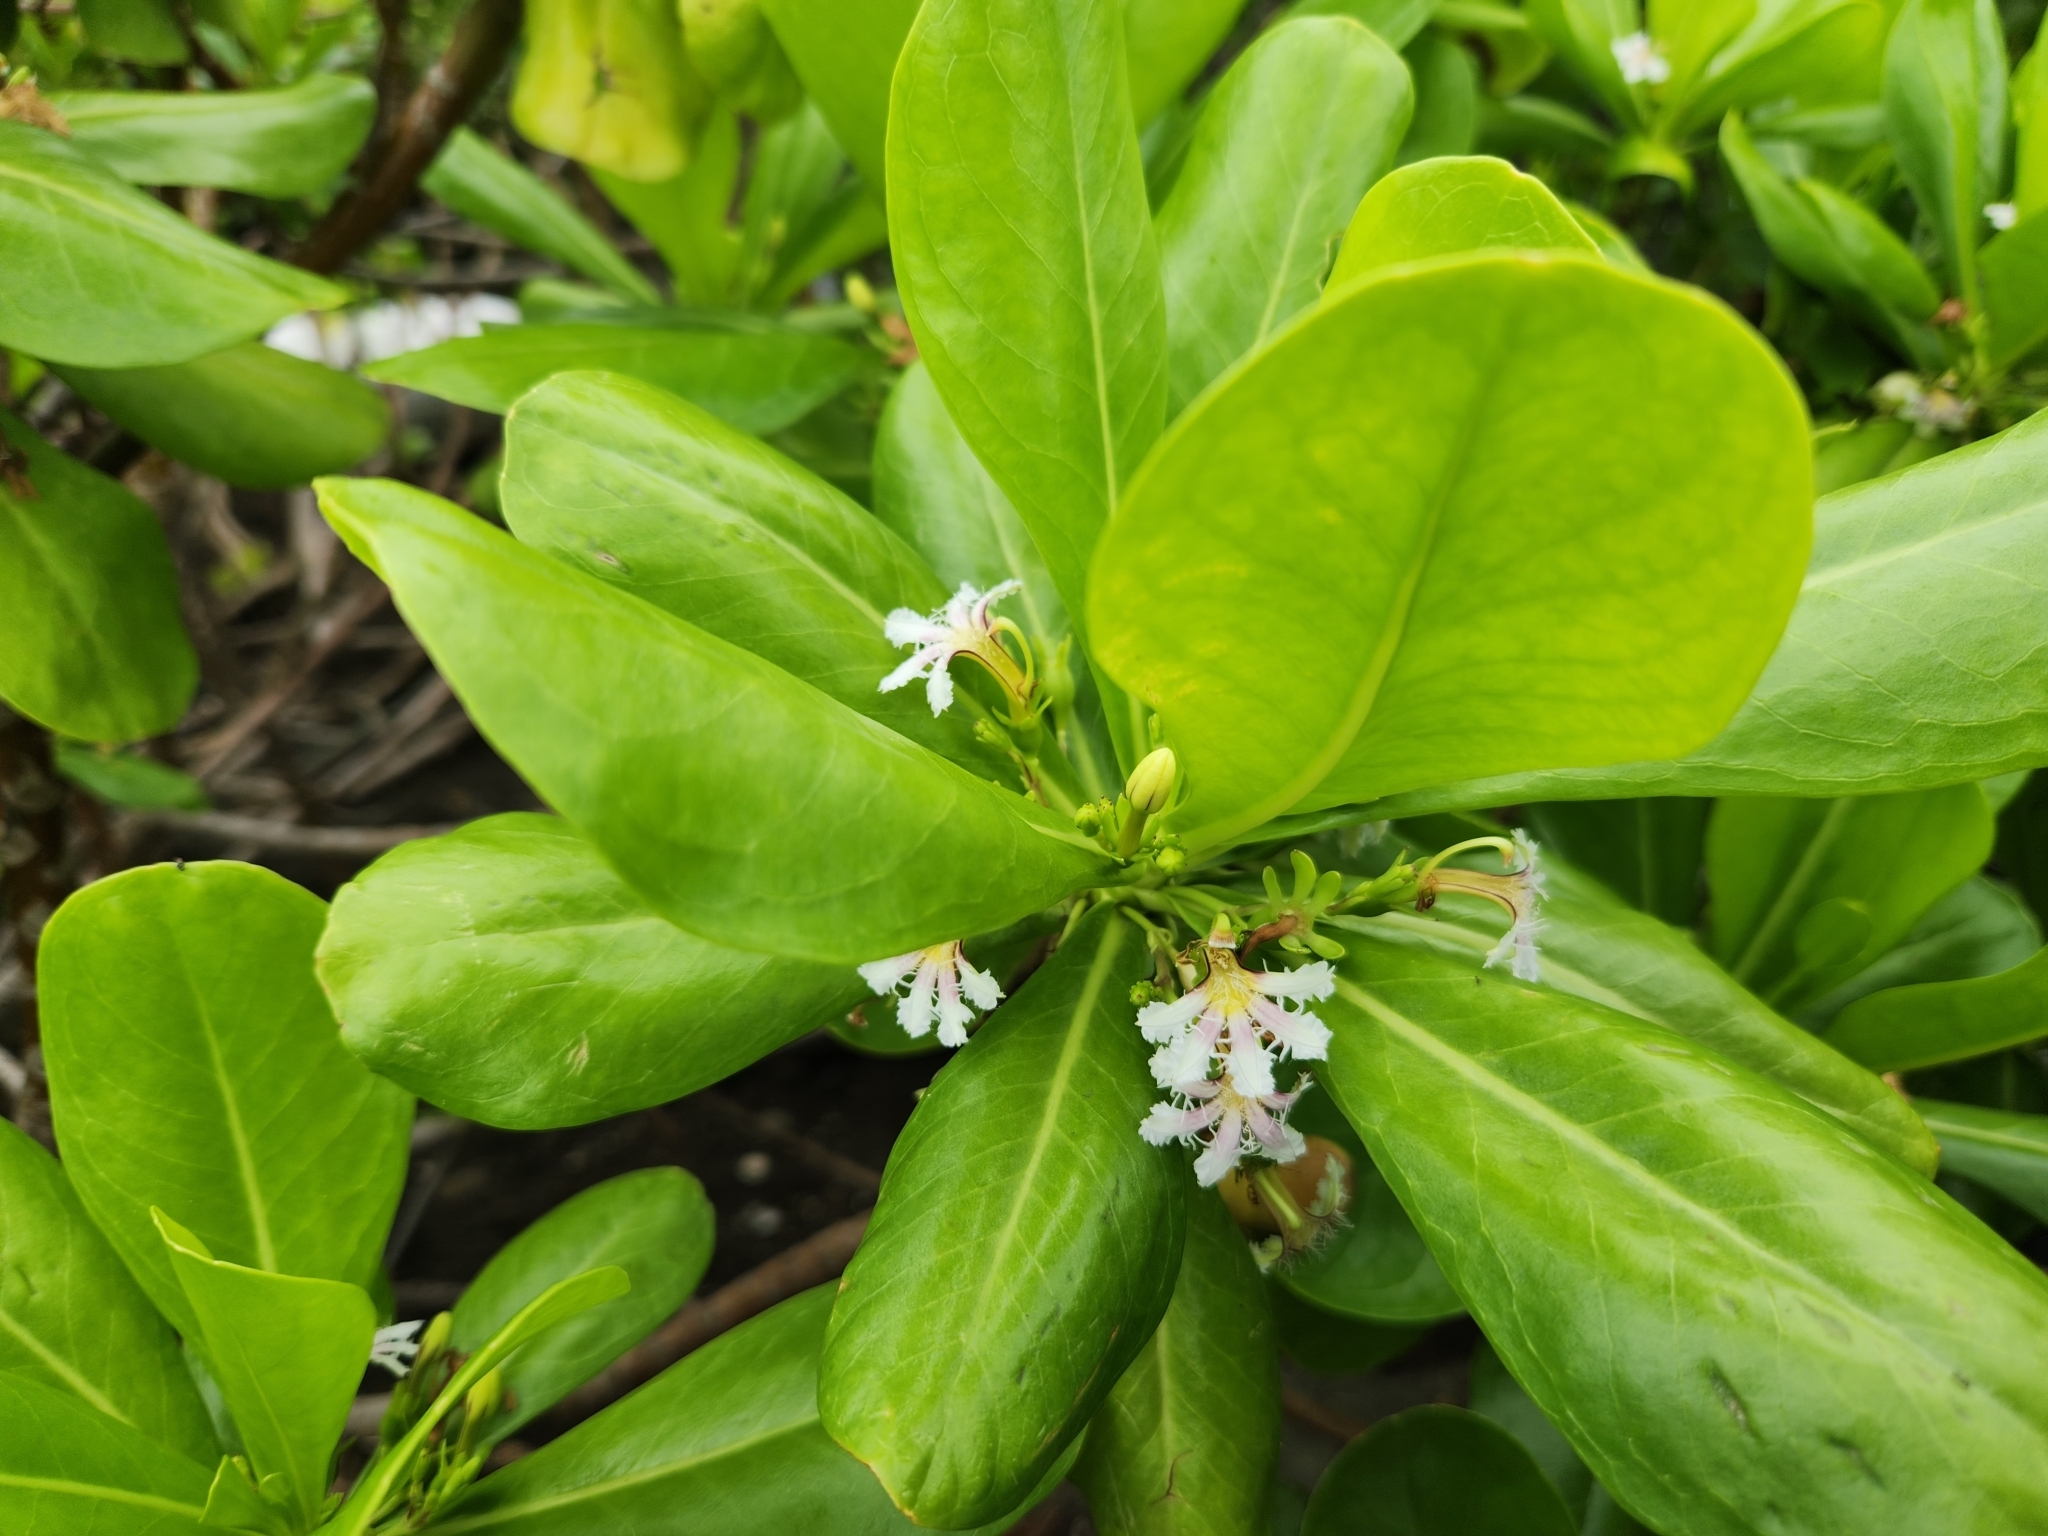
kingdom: Plantae
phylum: Tracheophyta
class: Magnoliopsida
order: Asterales
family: Goodeniaceae
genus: Scaevola
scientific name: Scaevola taccada
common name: Sea lettucetree
